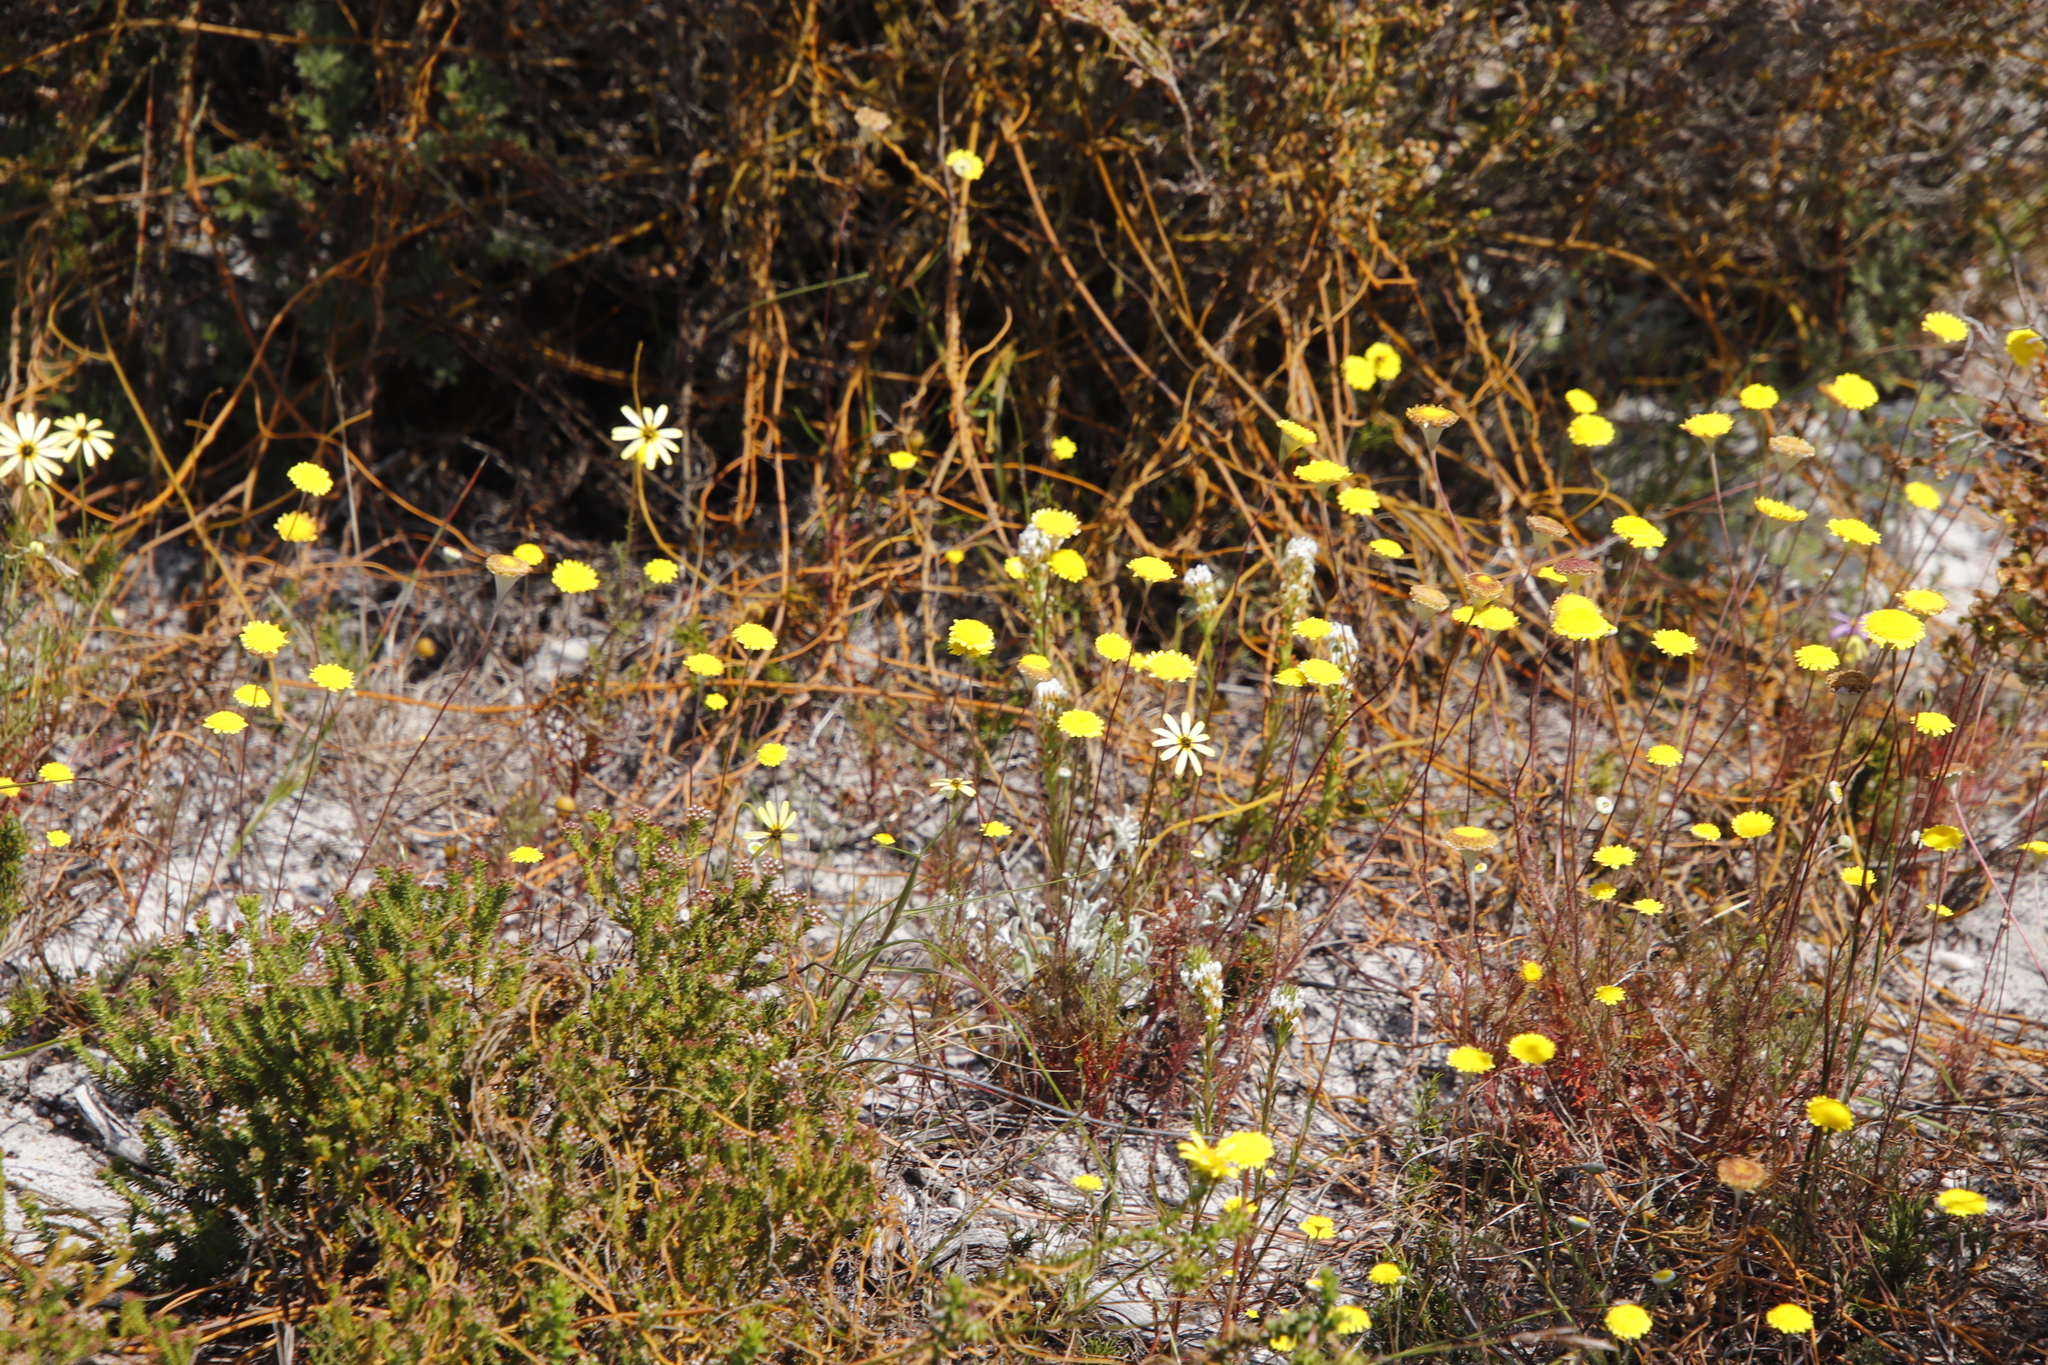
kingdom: Plantae
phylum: Tracheophyta
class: Magnoliopsida
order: Asterales
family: Asteraceae
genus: Cotula
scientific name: Cotula pruinosa
